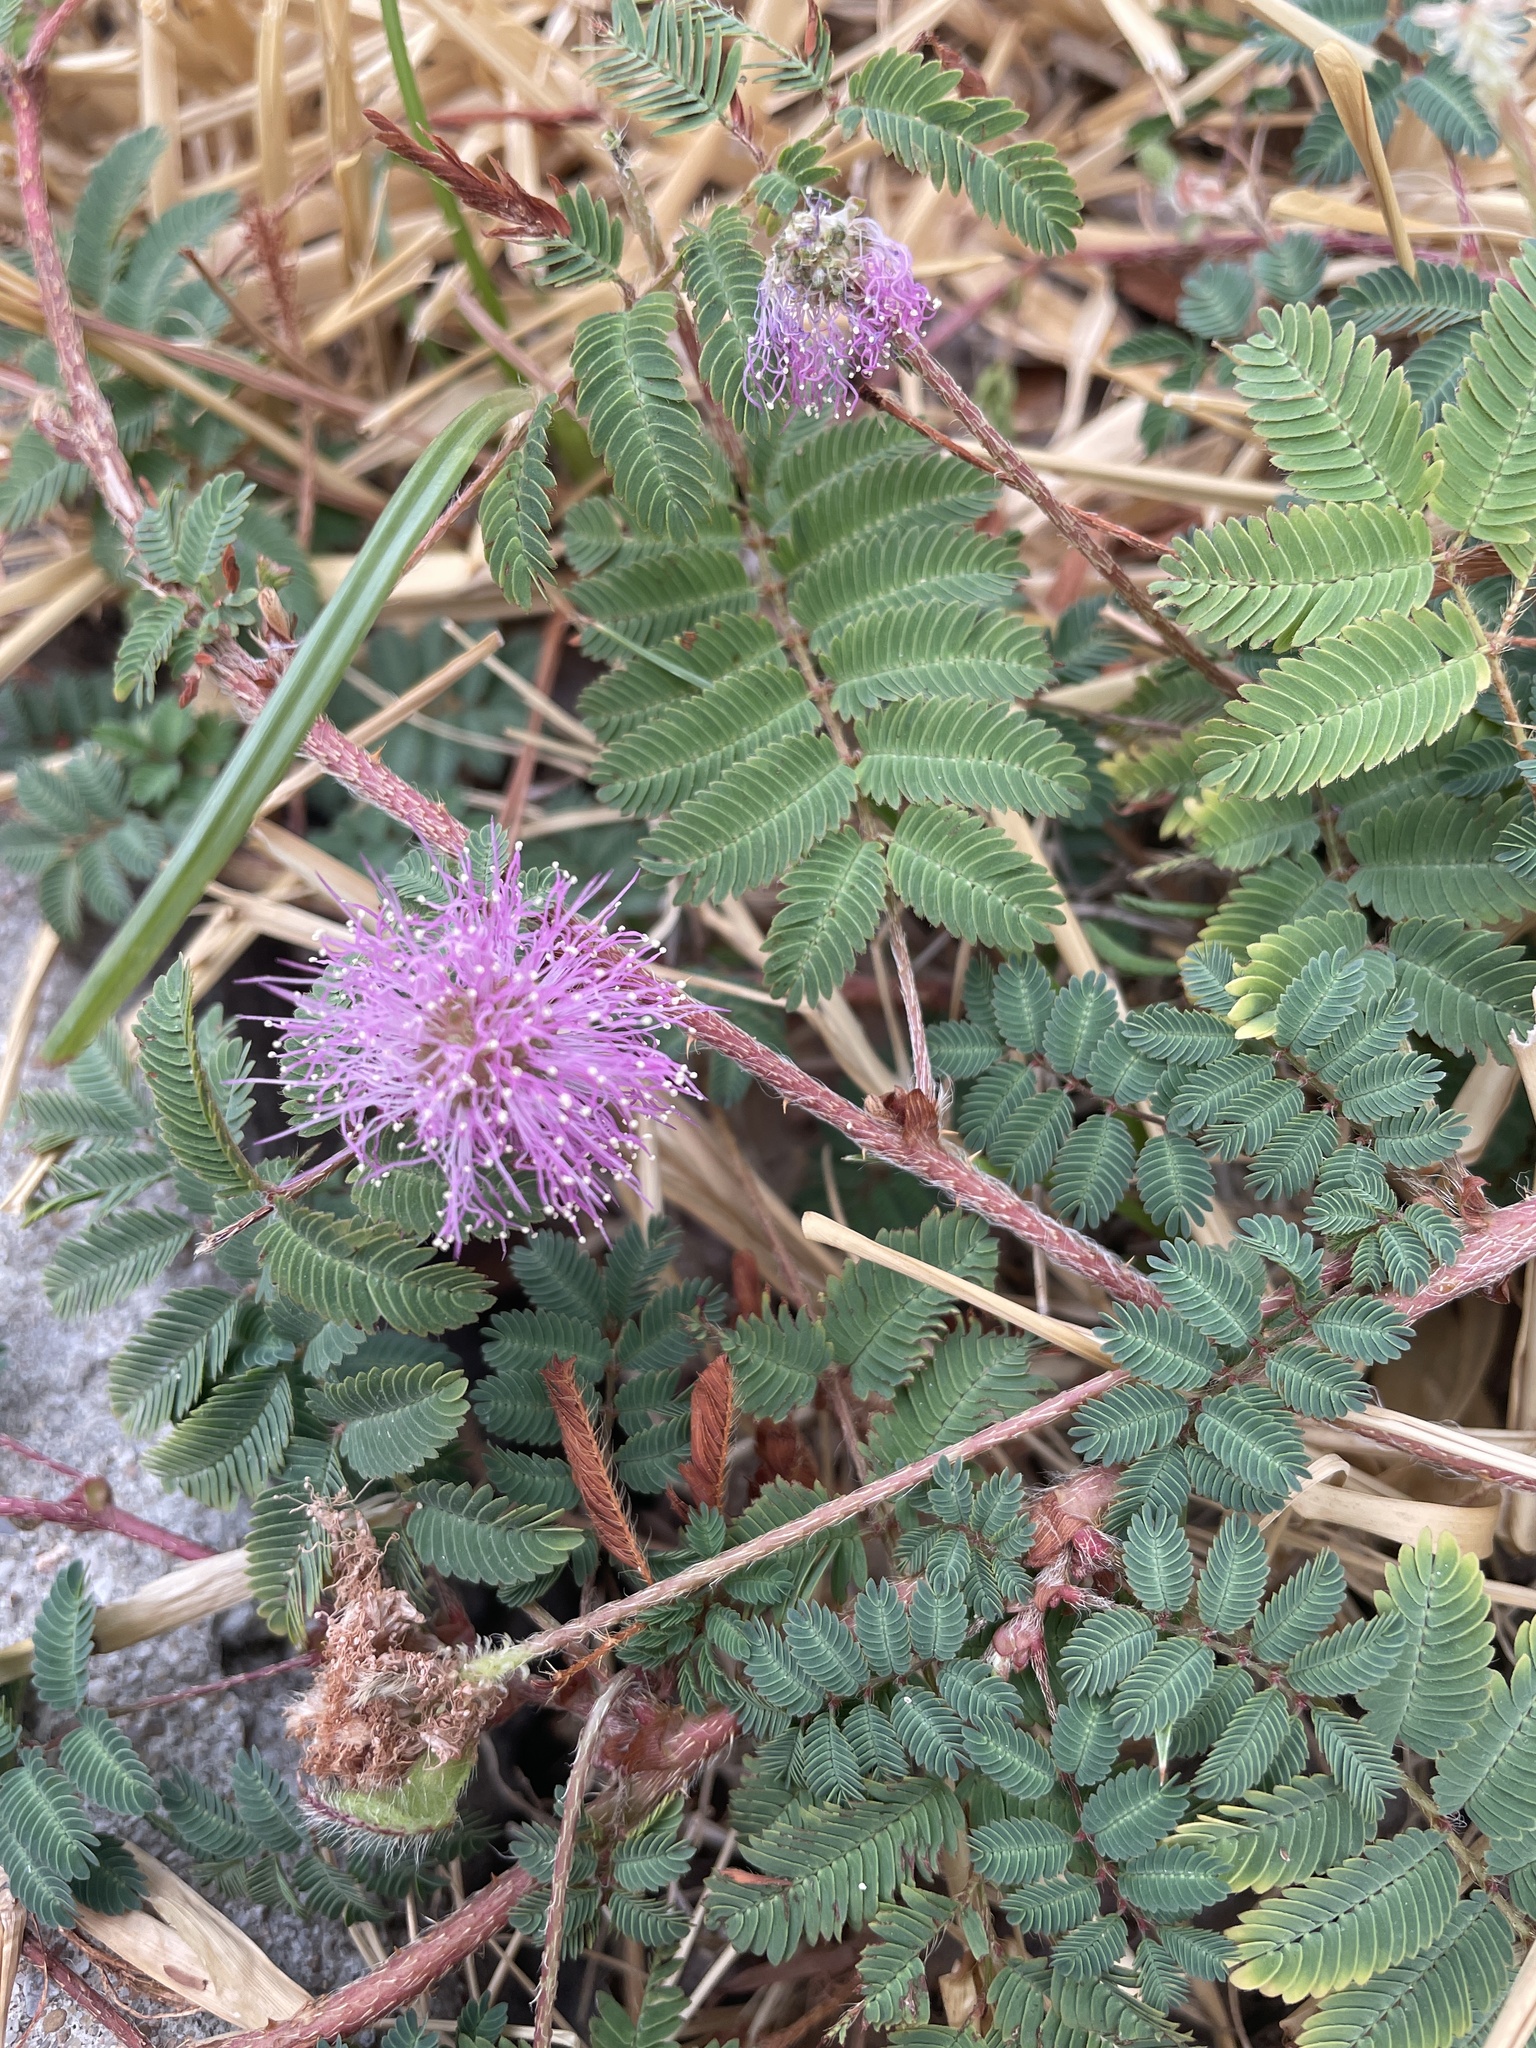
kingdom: Plantae
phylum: Tracheophyta
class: Magnoliopsida
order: Fabales
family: Fabaceae
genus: Mimosa
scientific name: Mimosa strigillosa
